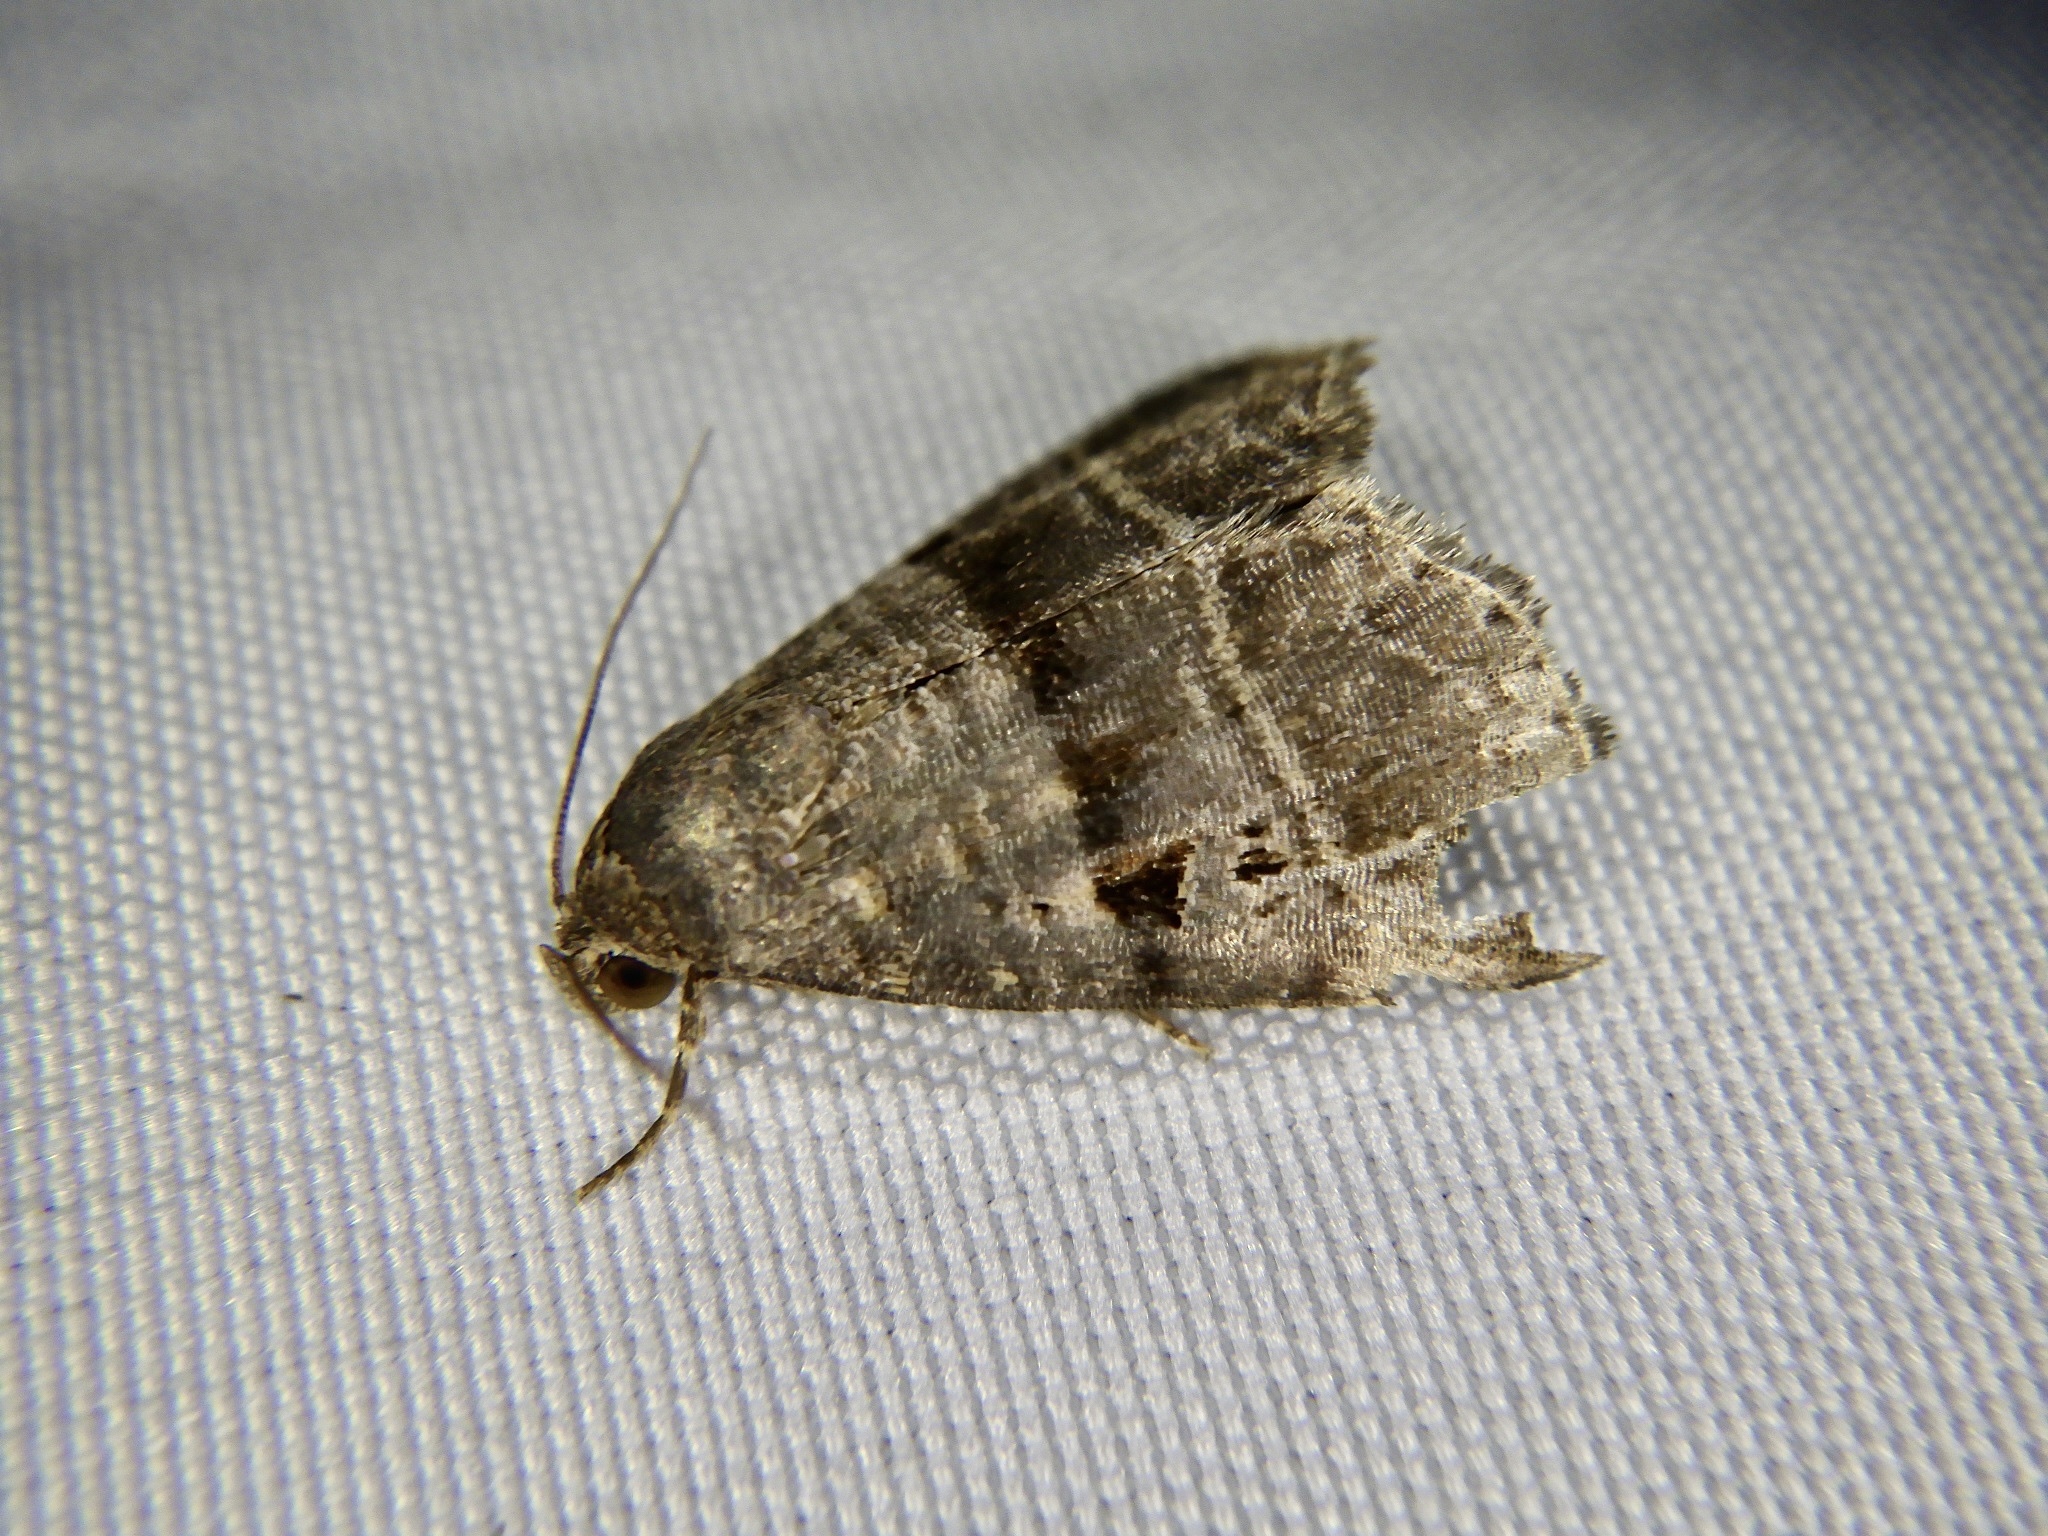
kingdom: Animalia
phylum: Arthropoda
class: Insecta
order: Lepidoptera
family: Noctuidae
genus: Ozarba
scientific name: Ozarba punctigera
